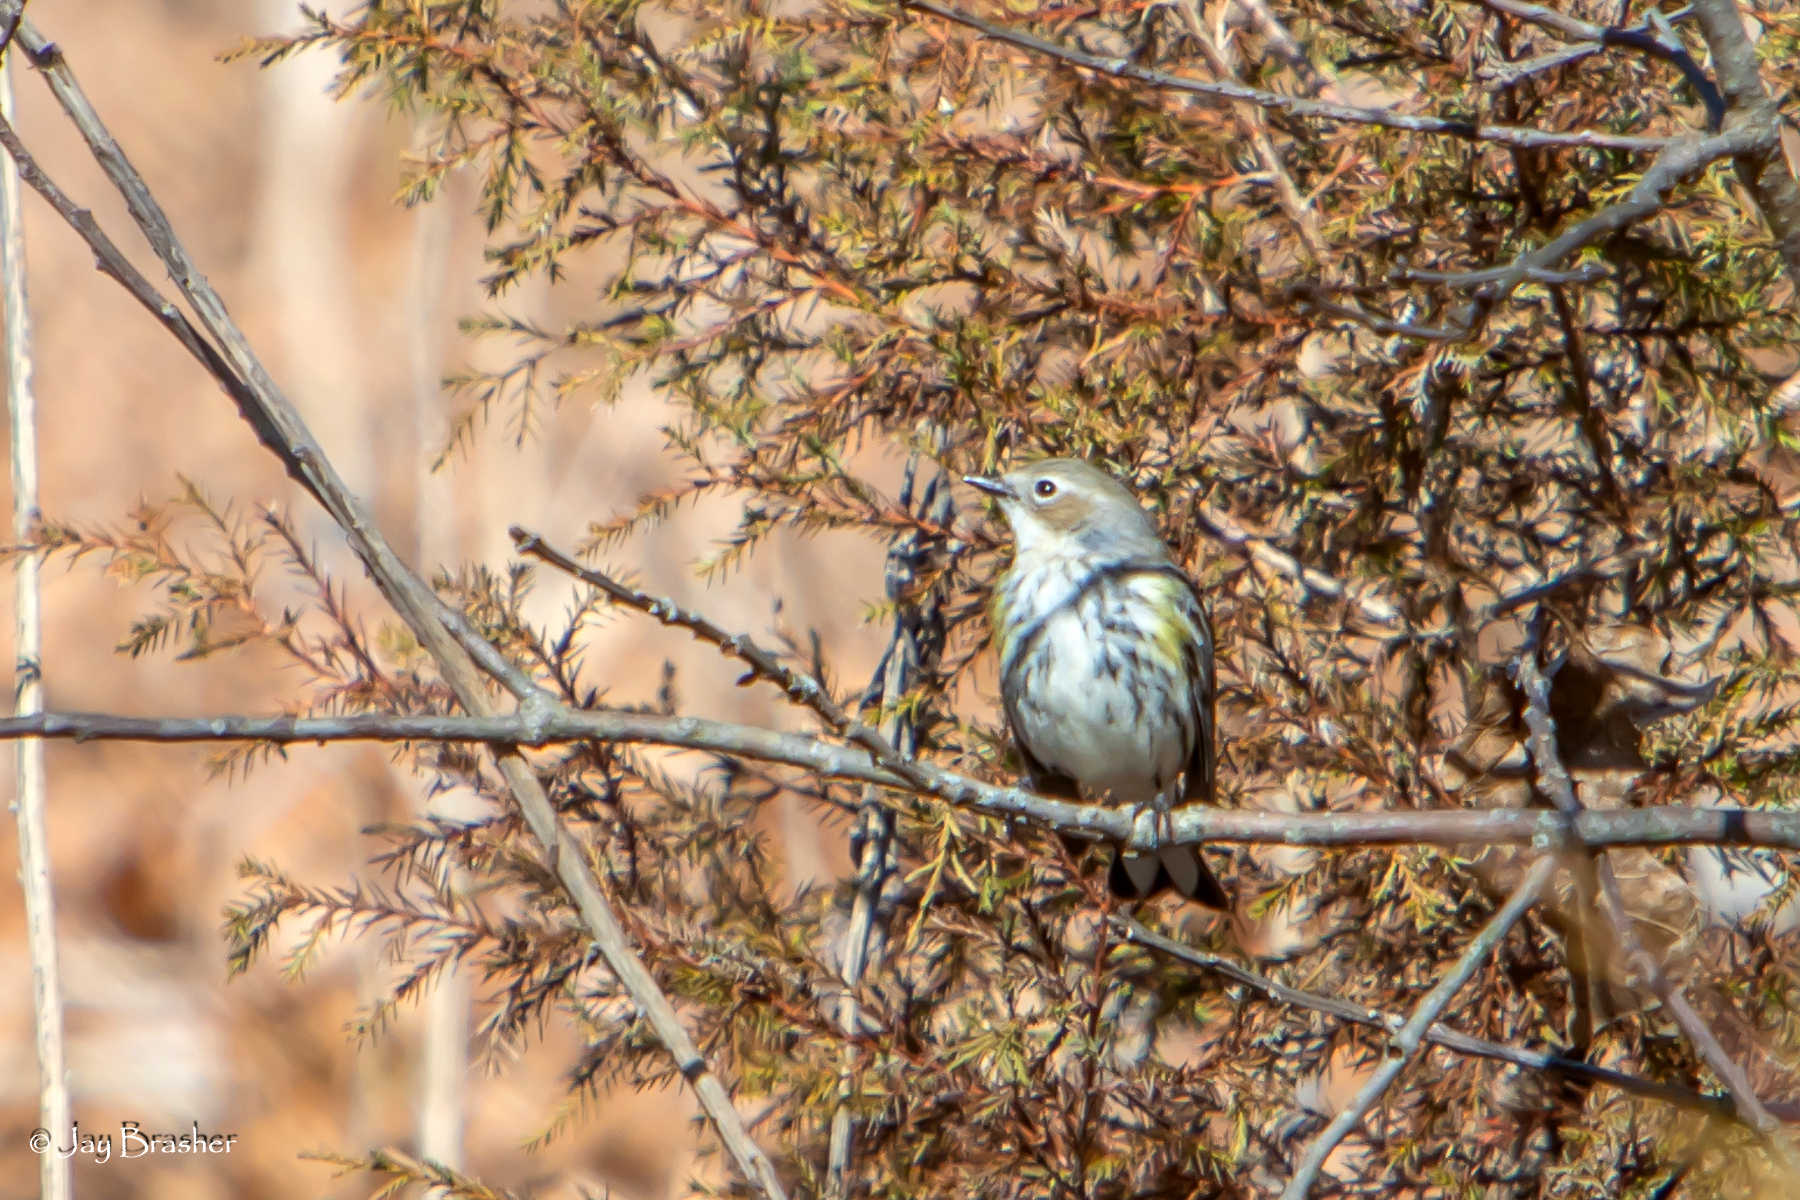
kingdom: Animalia
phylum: Chordata
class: Aves
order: Passeriformes
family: Parulidae
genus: Setophaga
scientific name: Setophaga coronata
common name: Myrtle warbler
